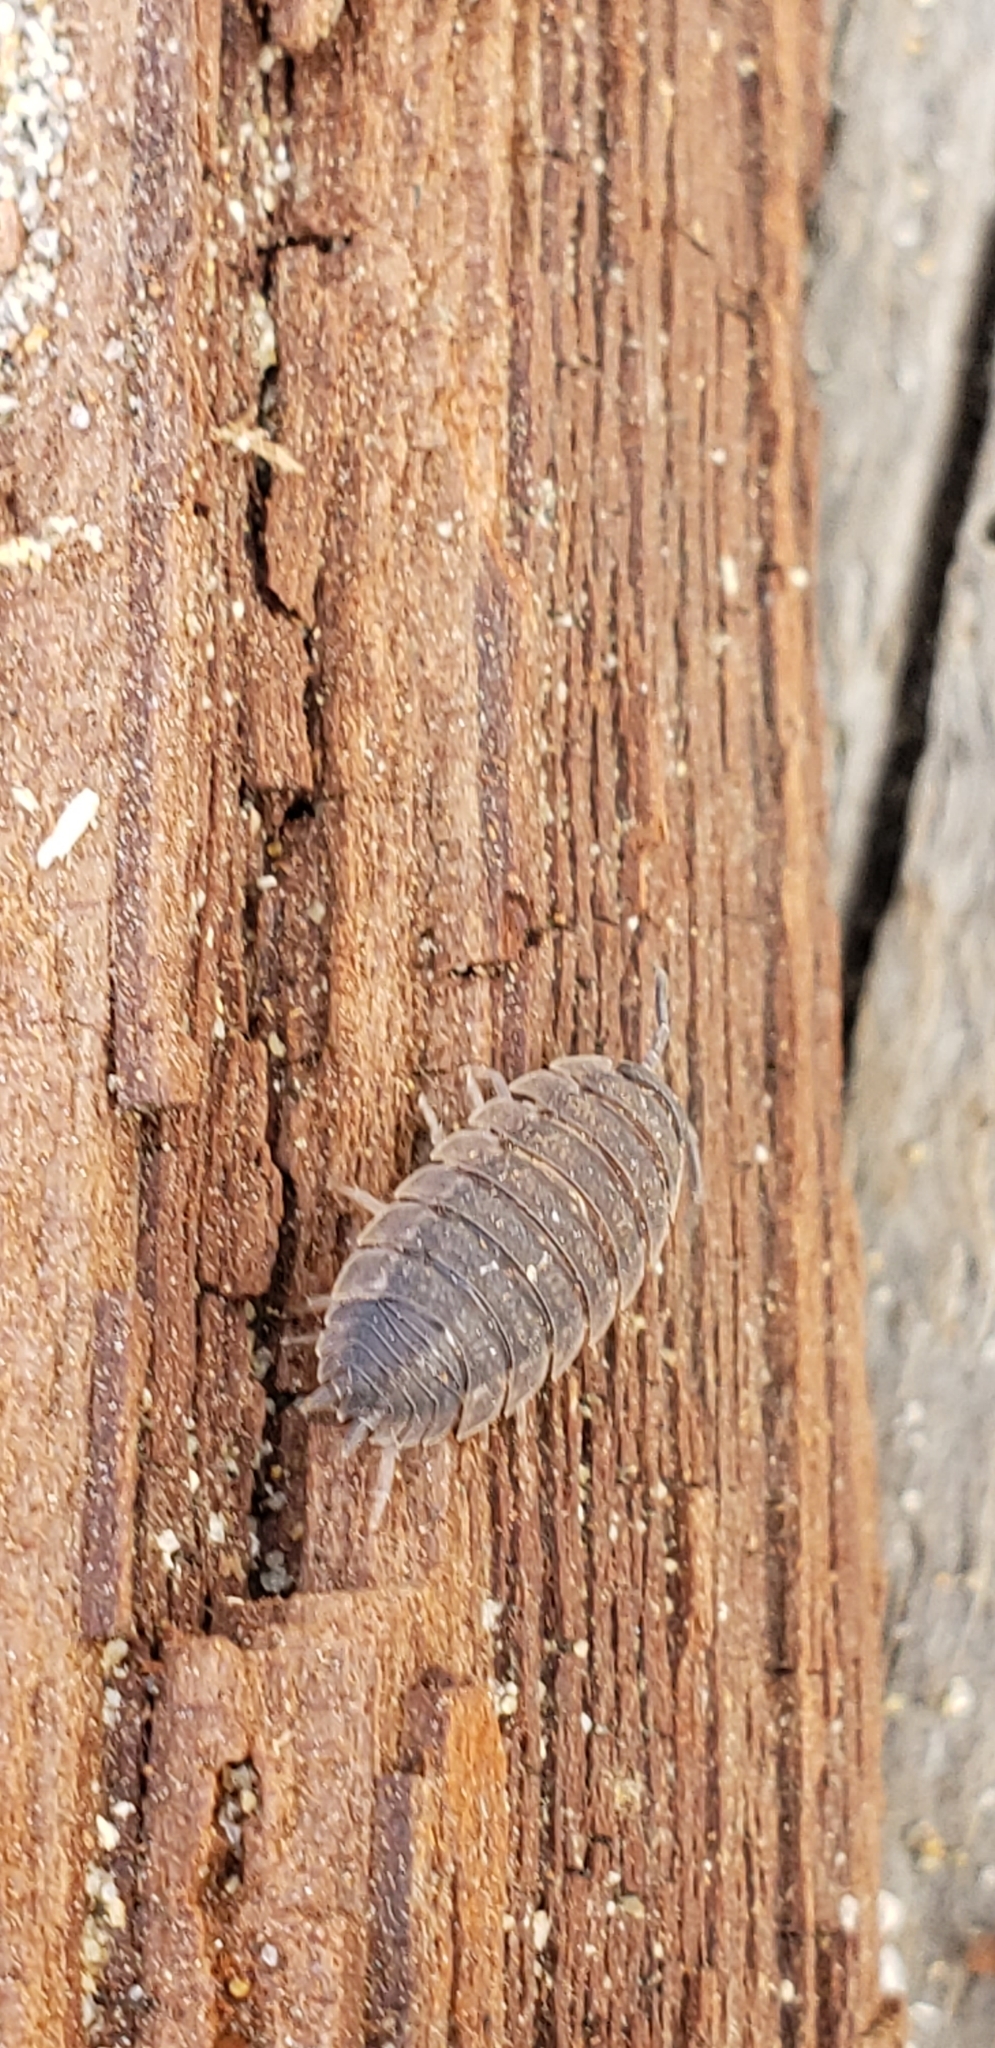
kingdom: Animalia
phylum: Arthropoda
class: Malacostraca
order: Isopoda
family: Porcellionidae
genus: Porcellio
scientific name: Porcellio scaber
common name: Common rough woodlouse
